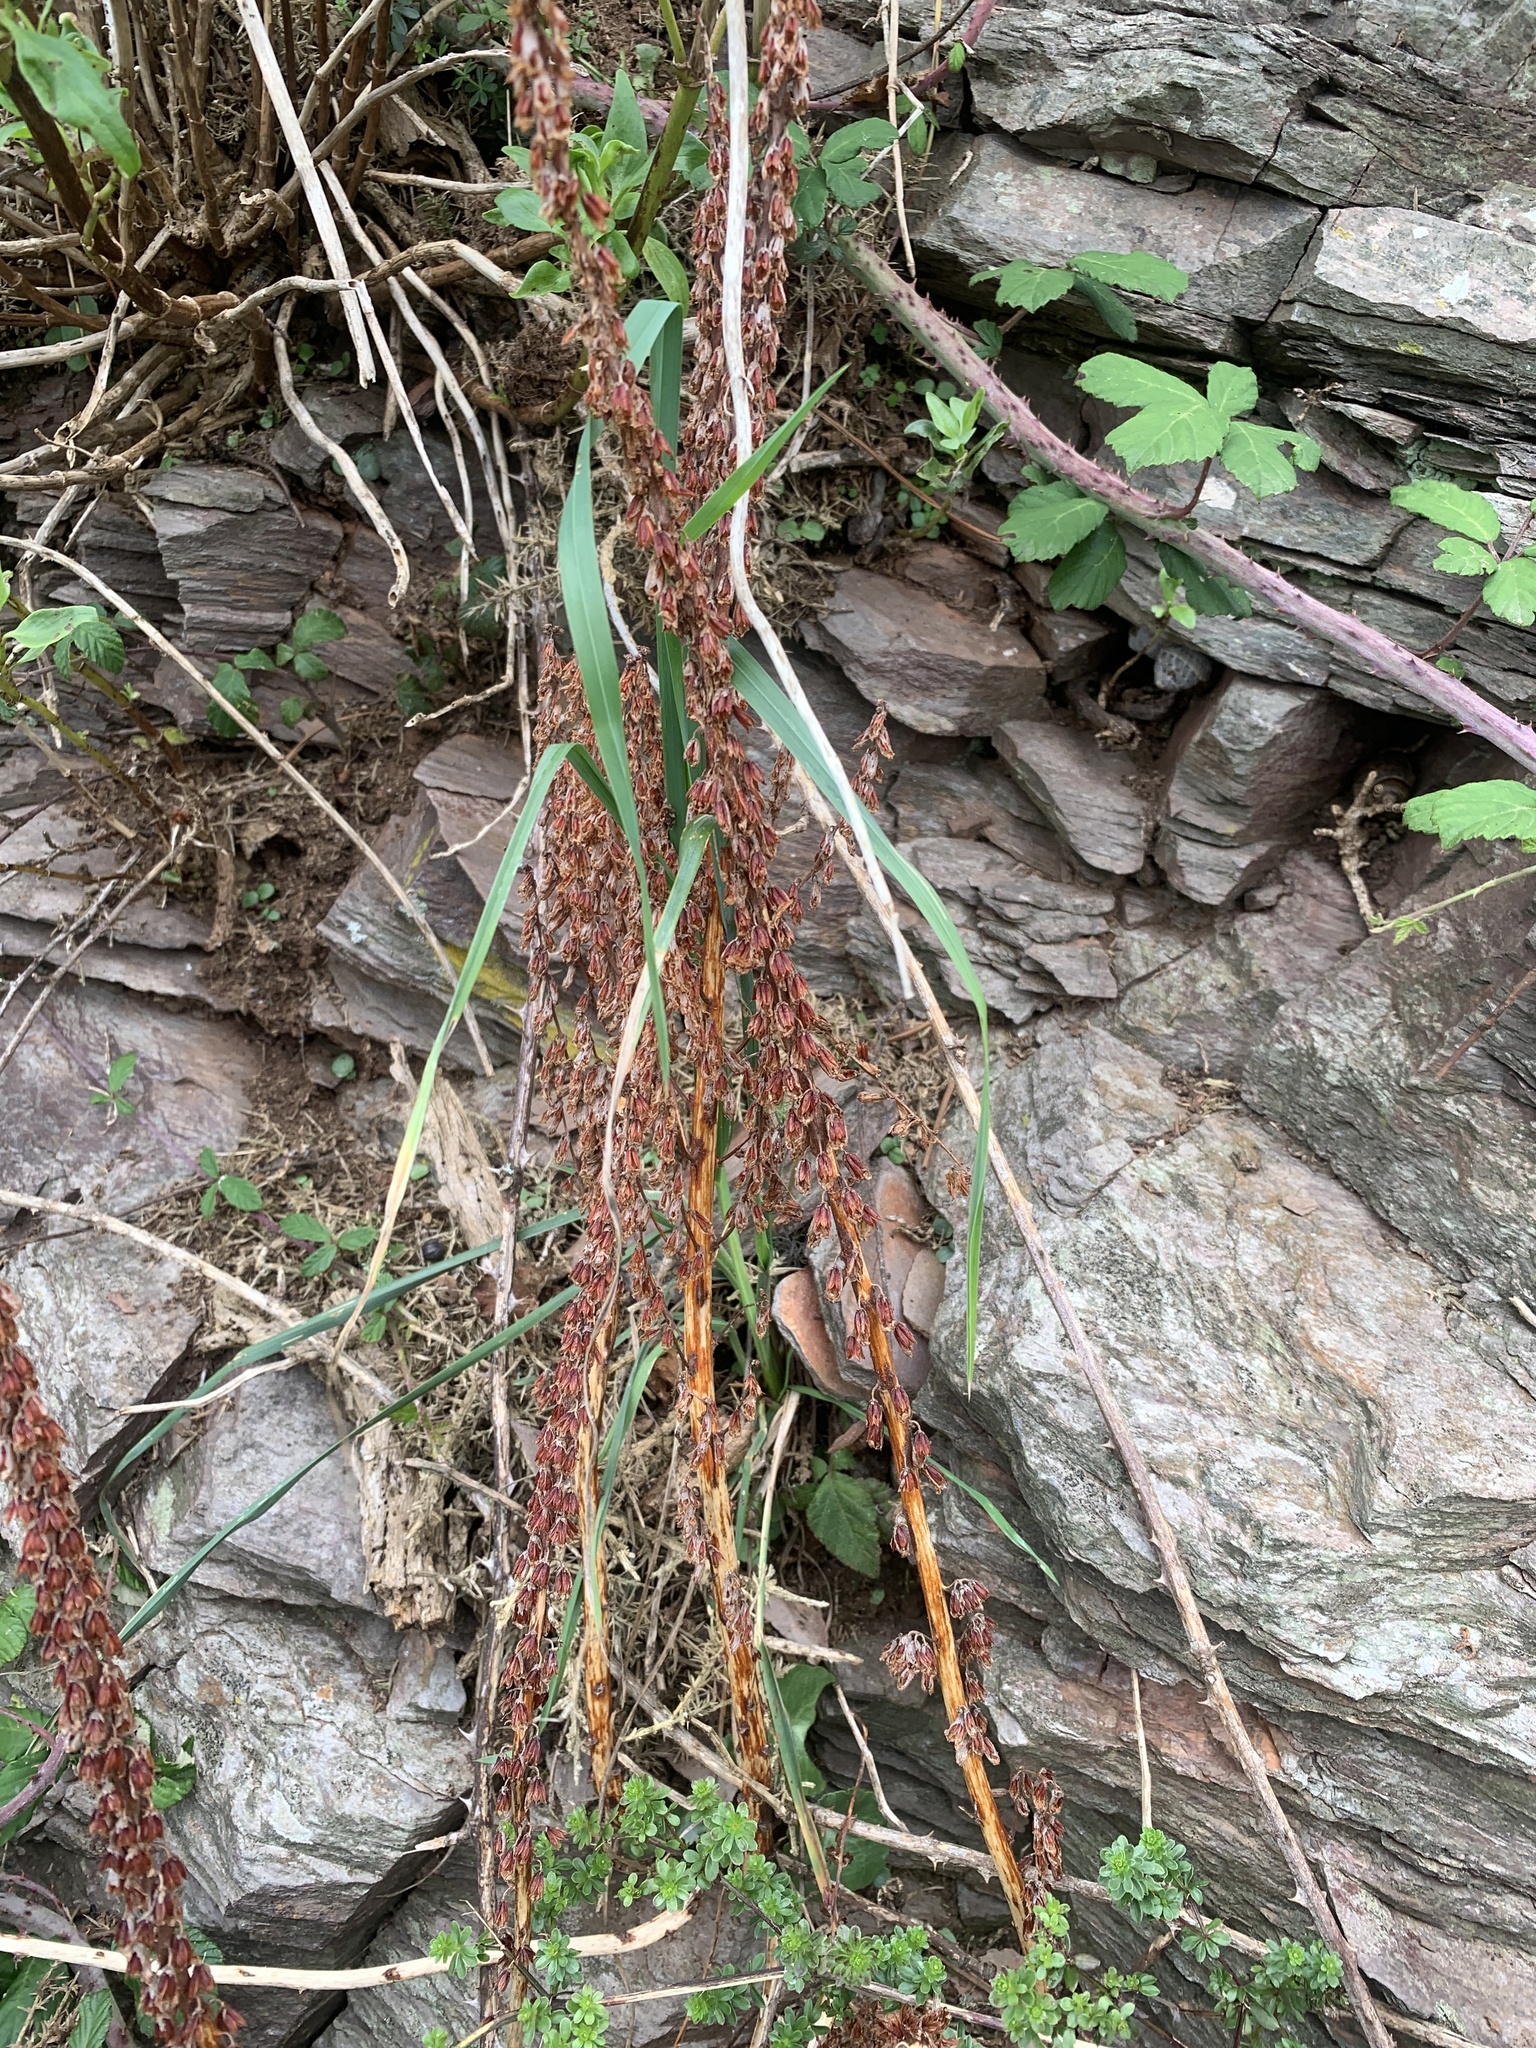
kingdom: Plantae
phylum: Tracheophyta
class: Magnoliopsida
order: Saxifragales
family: Crassulaceae
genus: Umbilicus
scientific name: Umbilicus rupestris
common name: Navelwort
